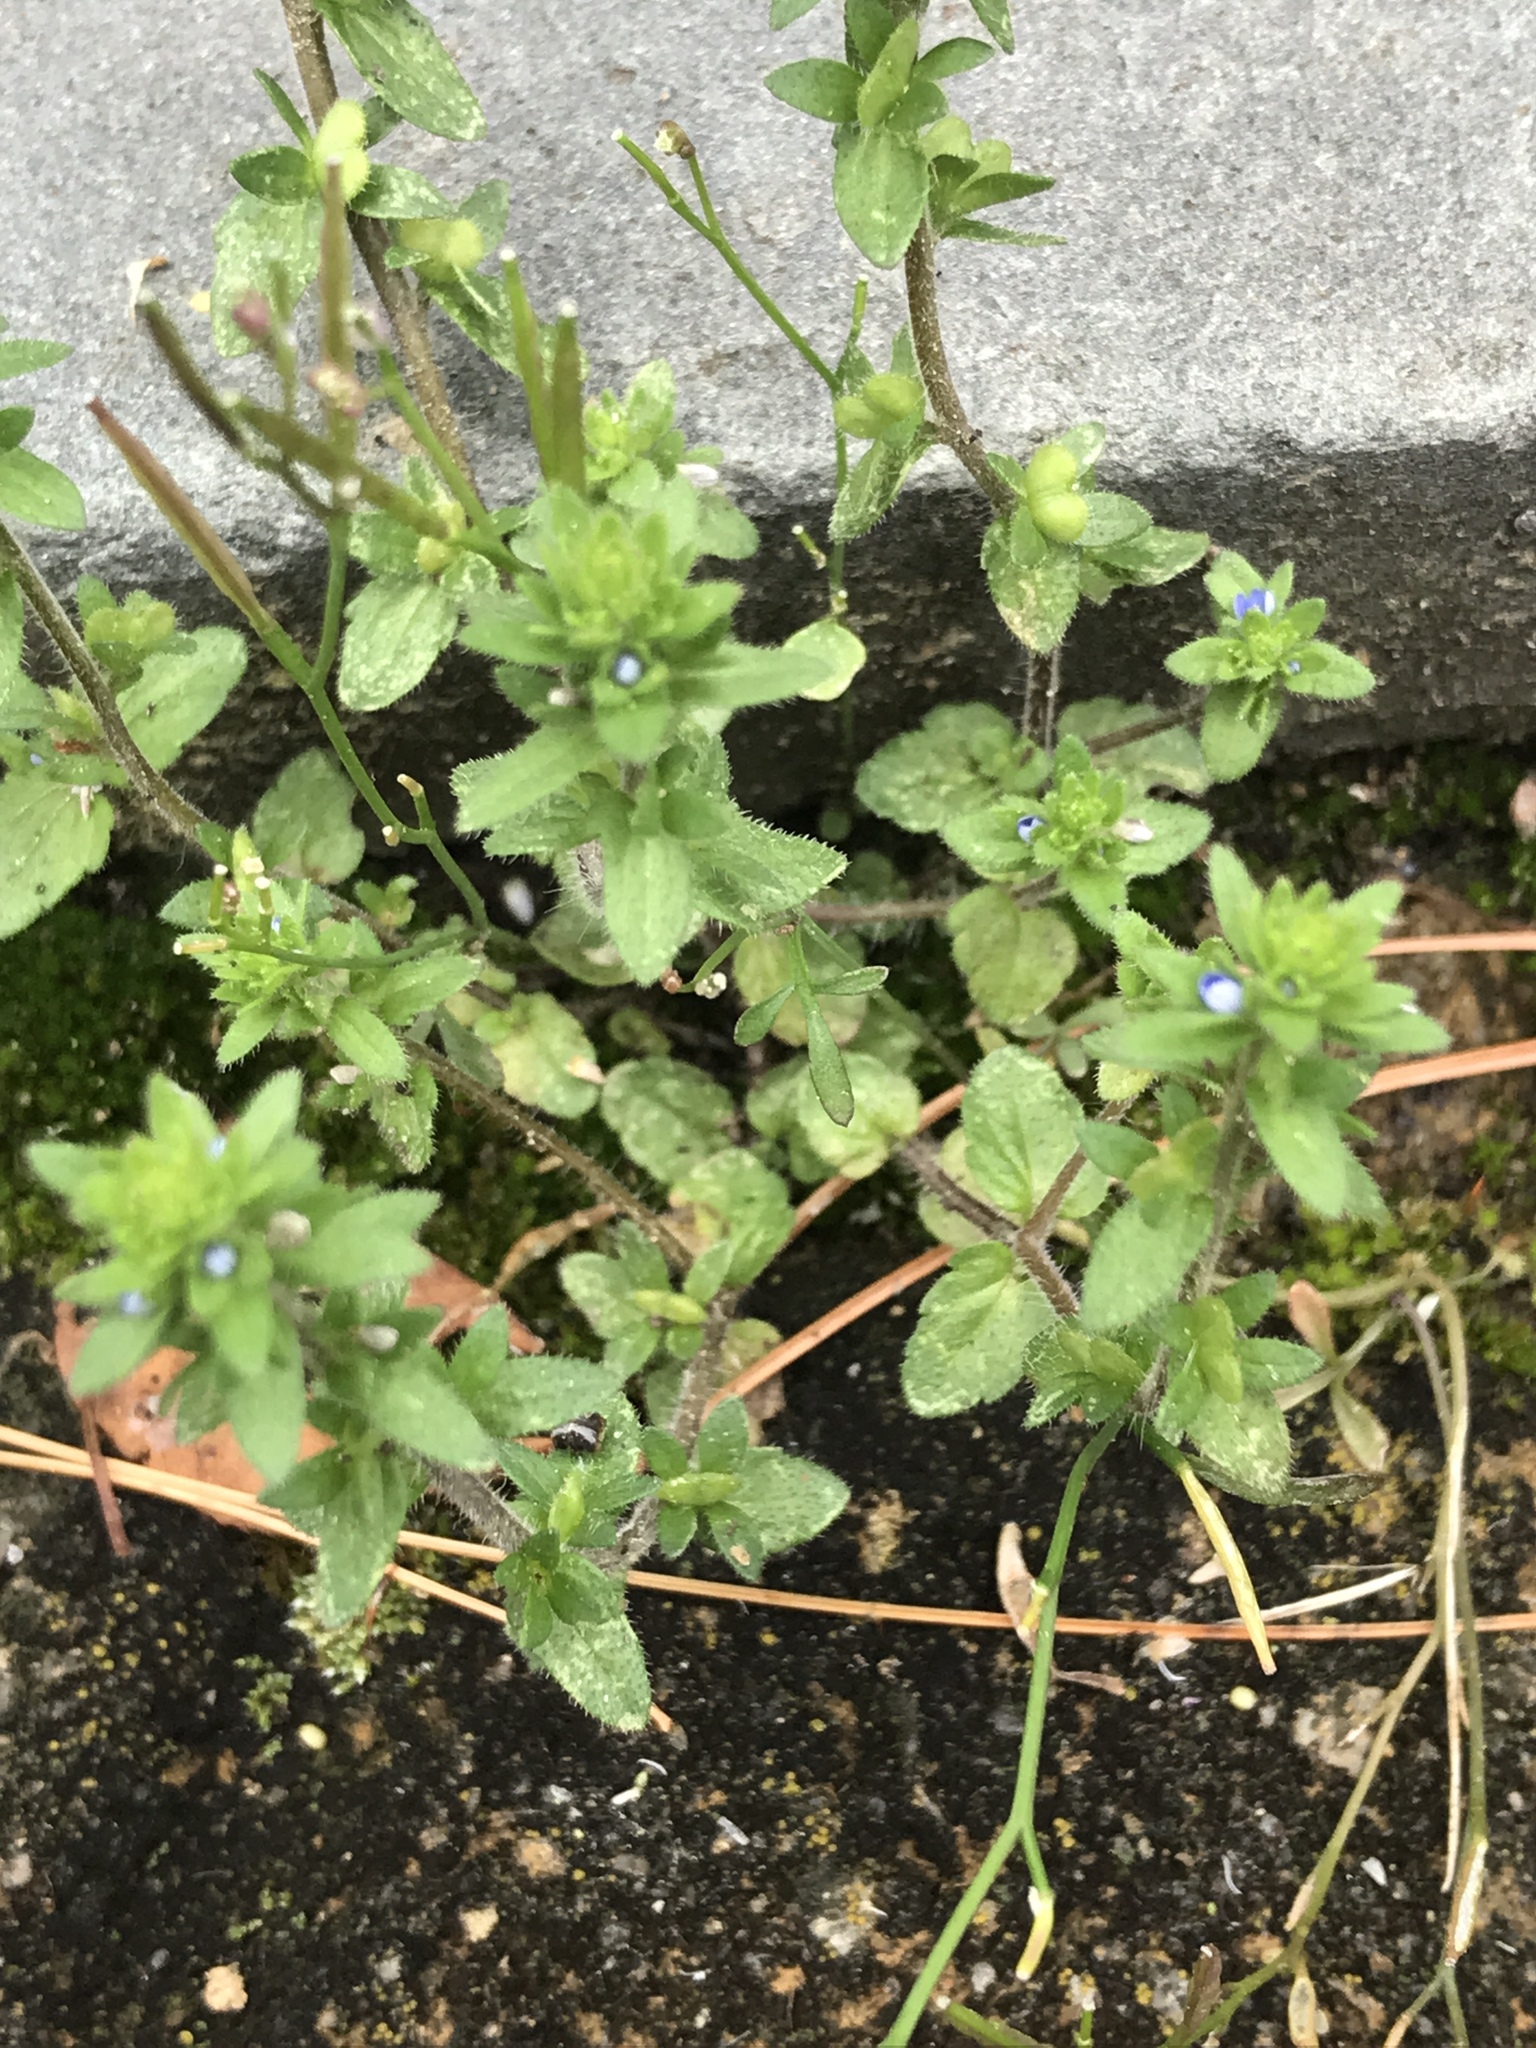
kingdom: Plantae
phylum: Tracheophyta
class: Magnoliopsida
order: Lamiales
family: Plantaginaceae
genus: Veronica
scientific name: Veronica arvensis
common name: Corn speedwell
